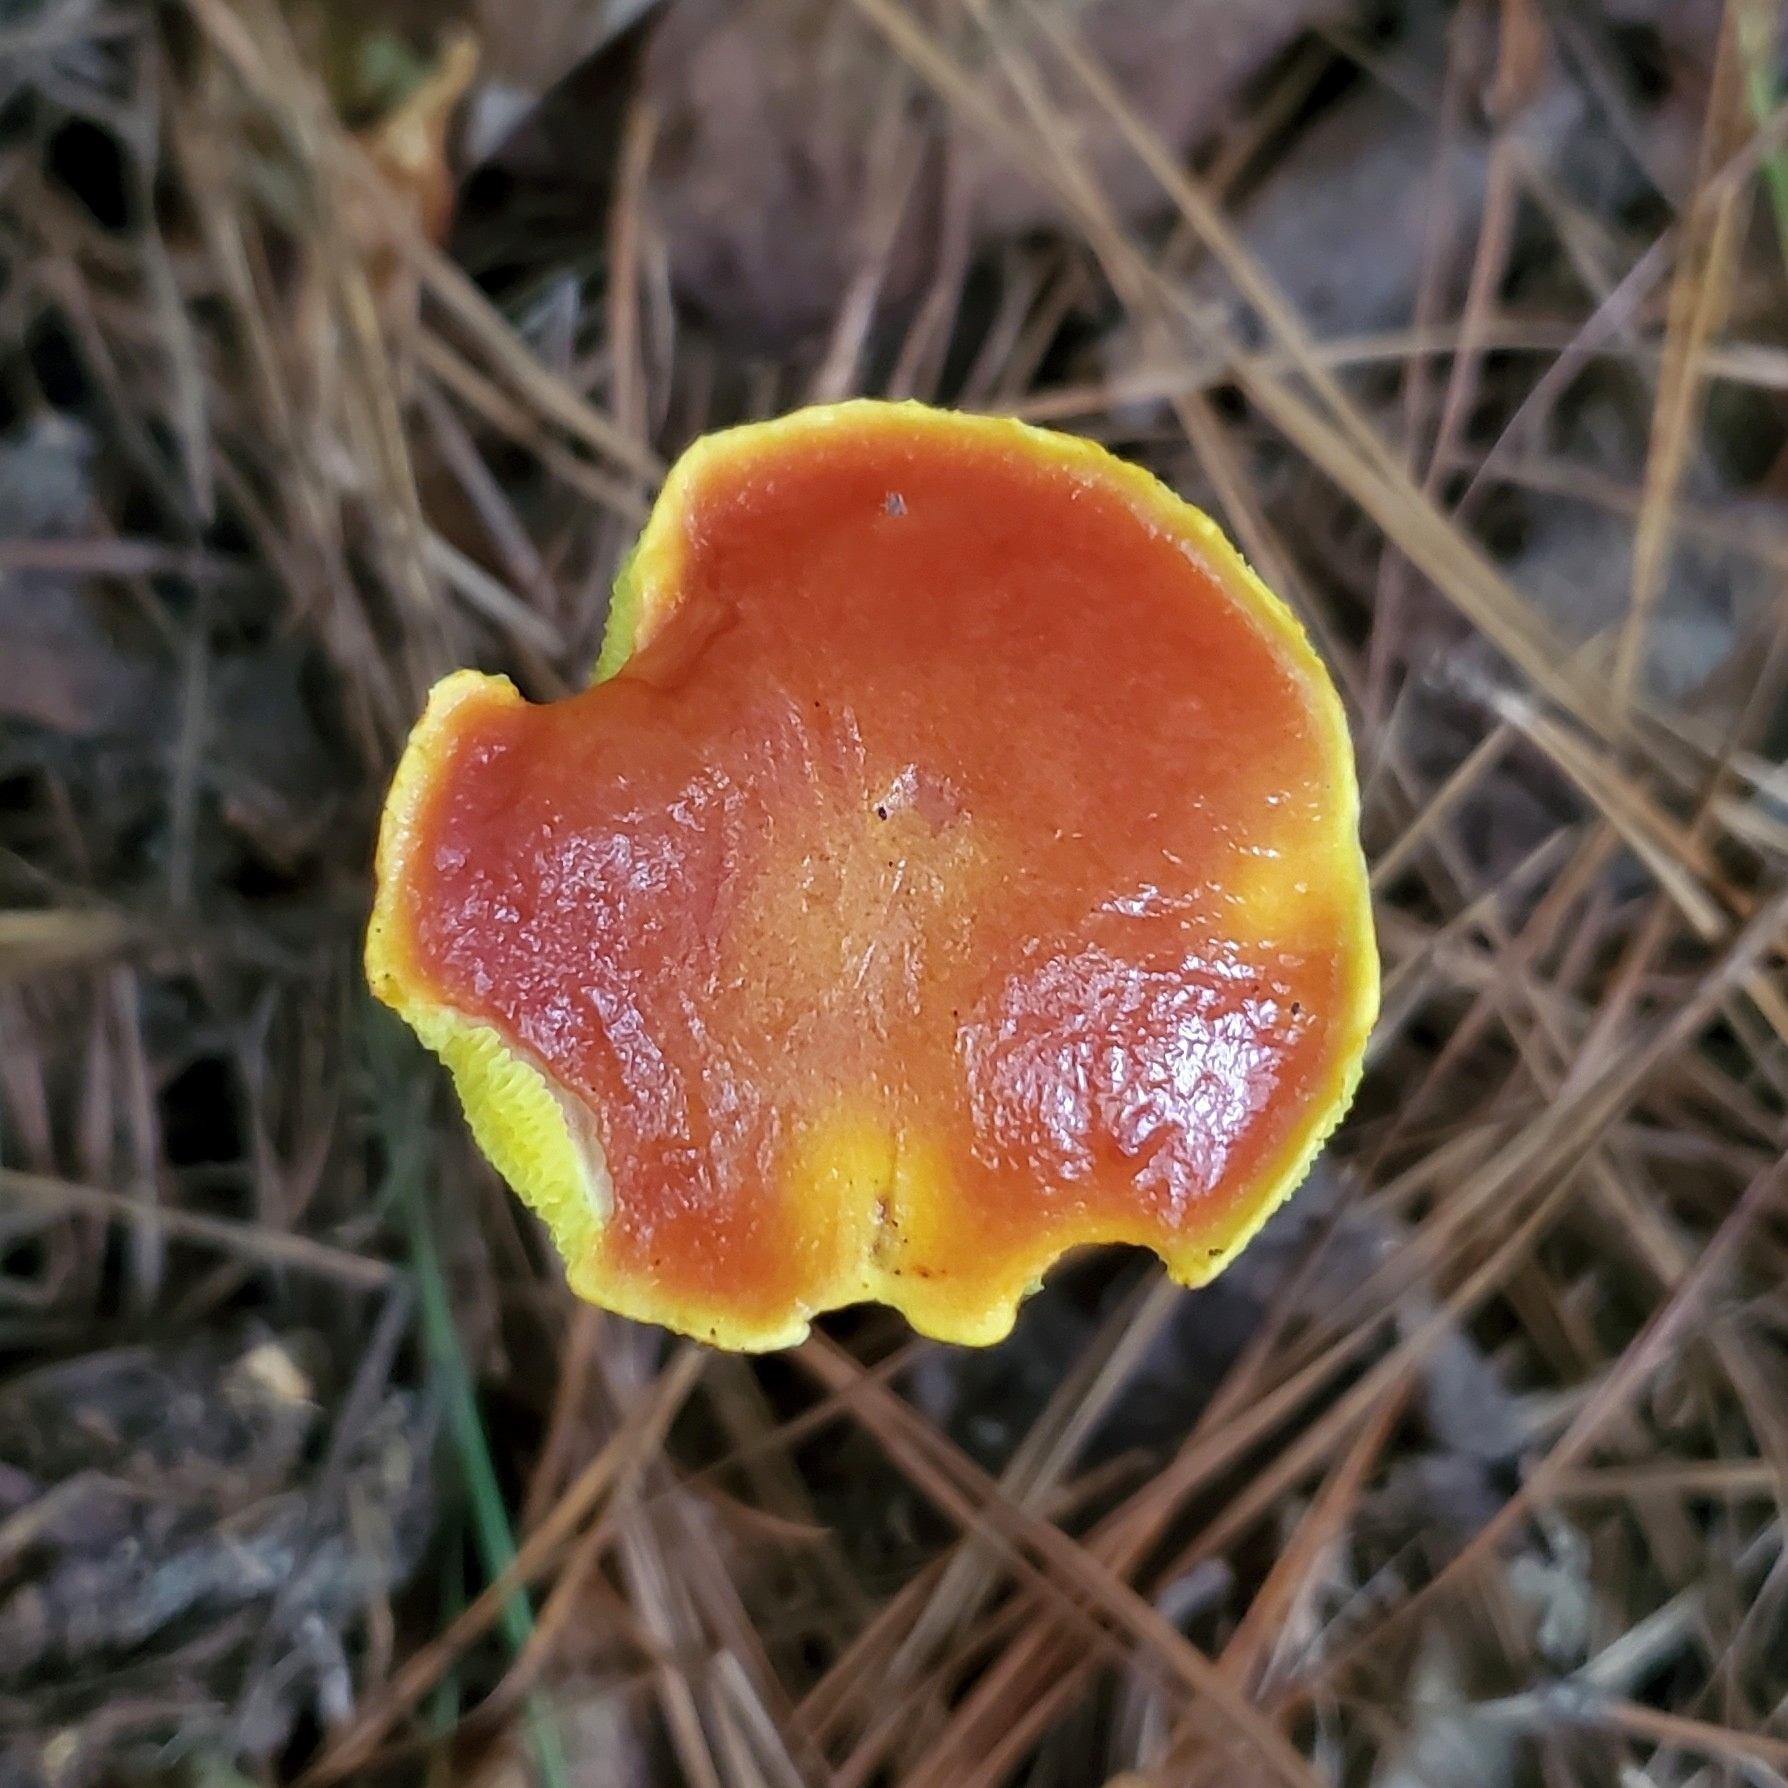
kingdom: Fungi
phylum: Basidiomycota
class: Agaricomycetes
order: Boletales
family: Boletaceae
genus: Aureoboletus
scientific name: Aureoboletus betula
